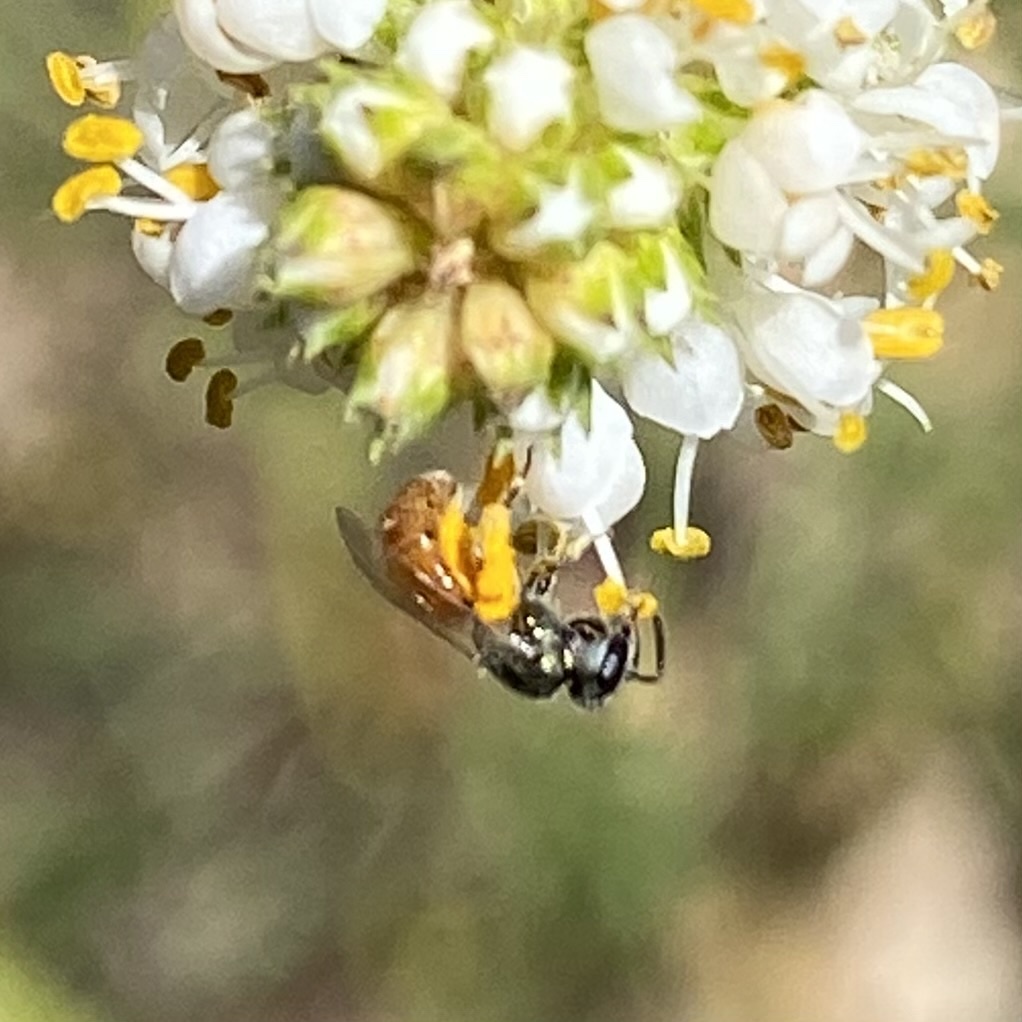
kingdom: Animalia
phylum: Arthropoda
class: Insecta
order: Hymenoptera
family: Halictidae
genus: Dialictus
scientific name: Dialictus
